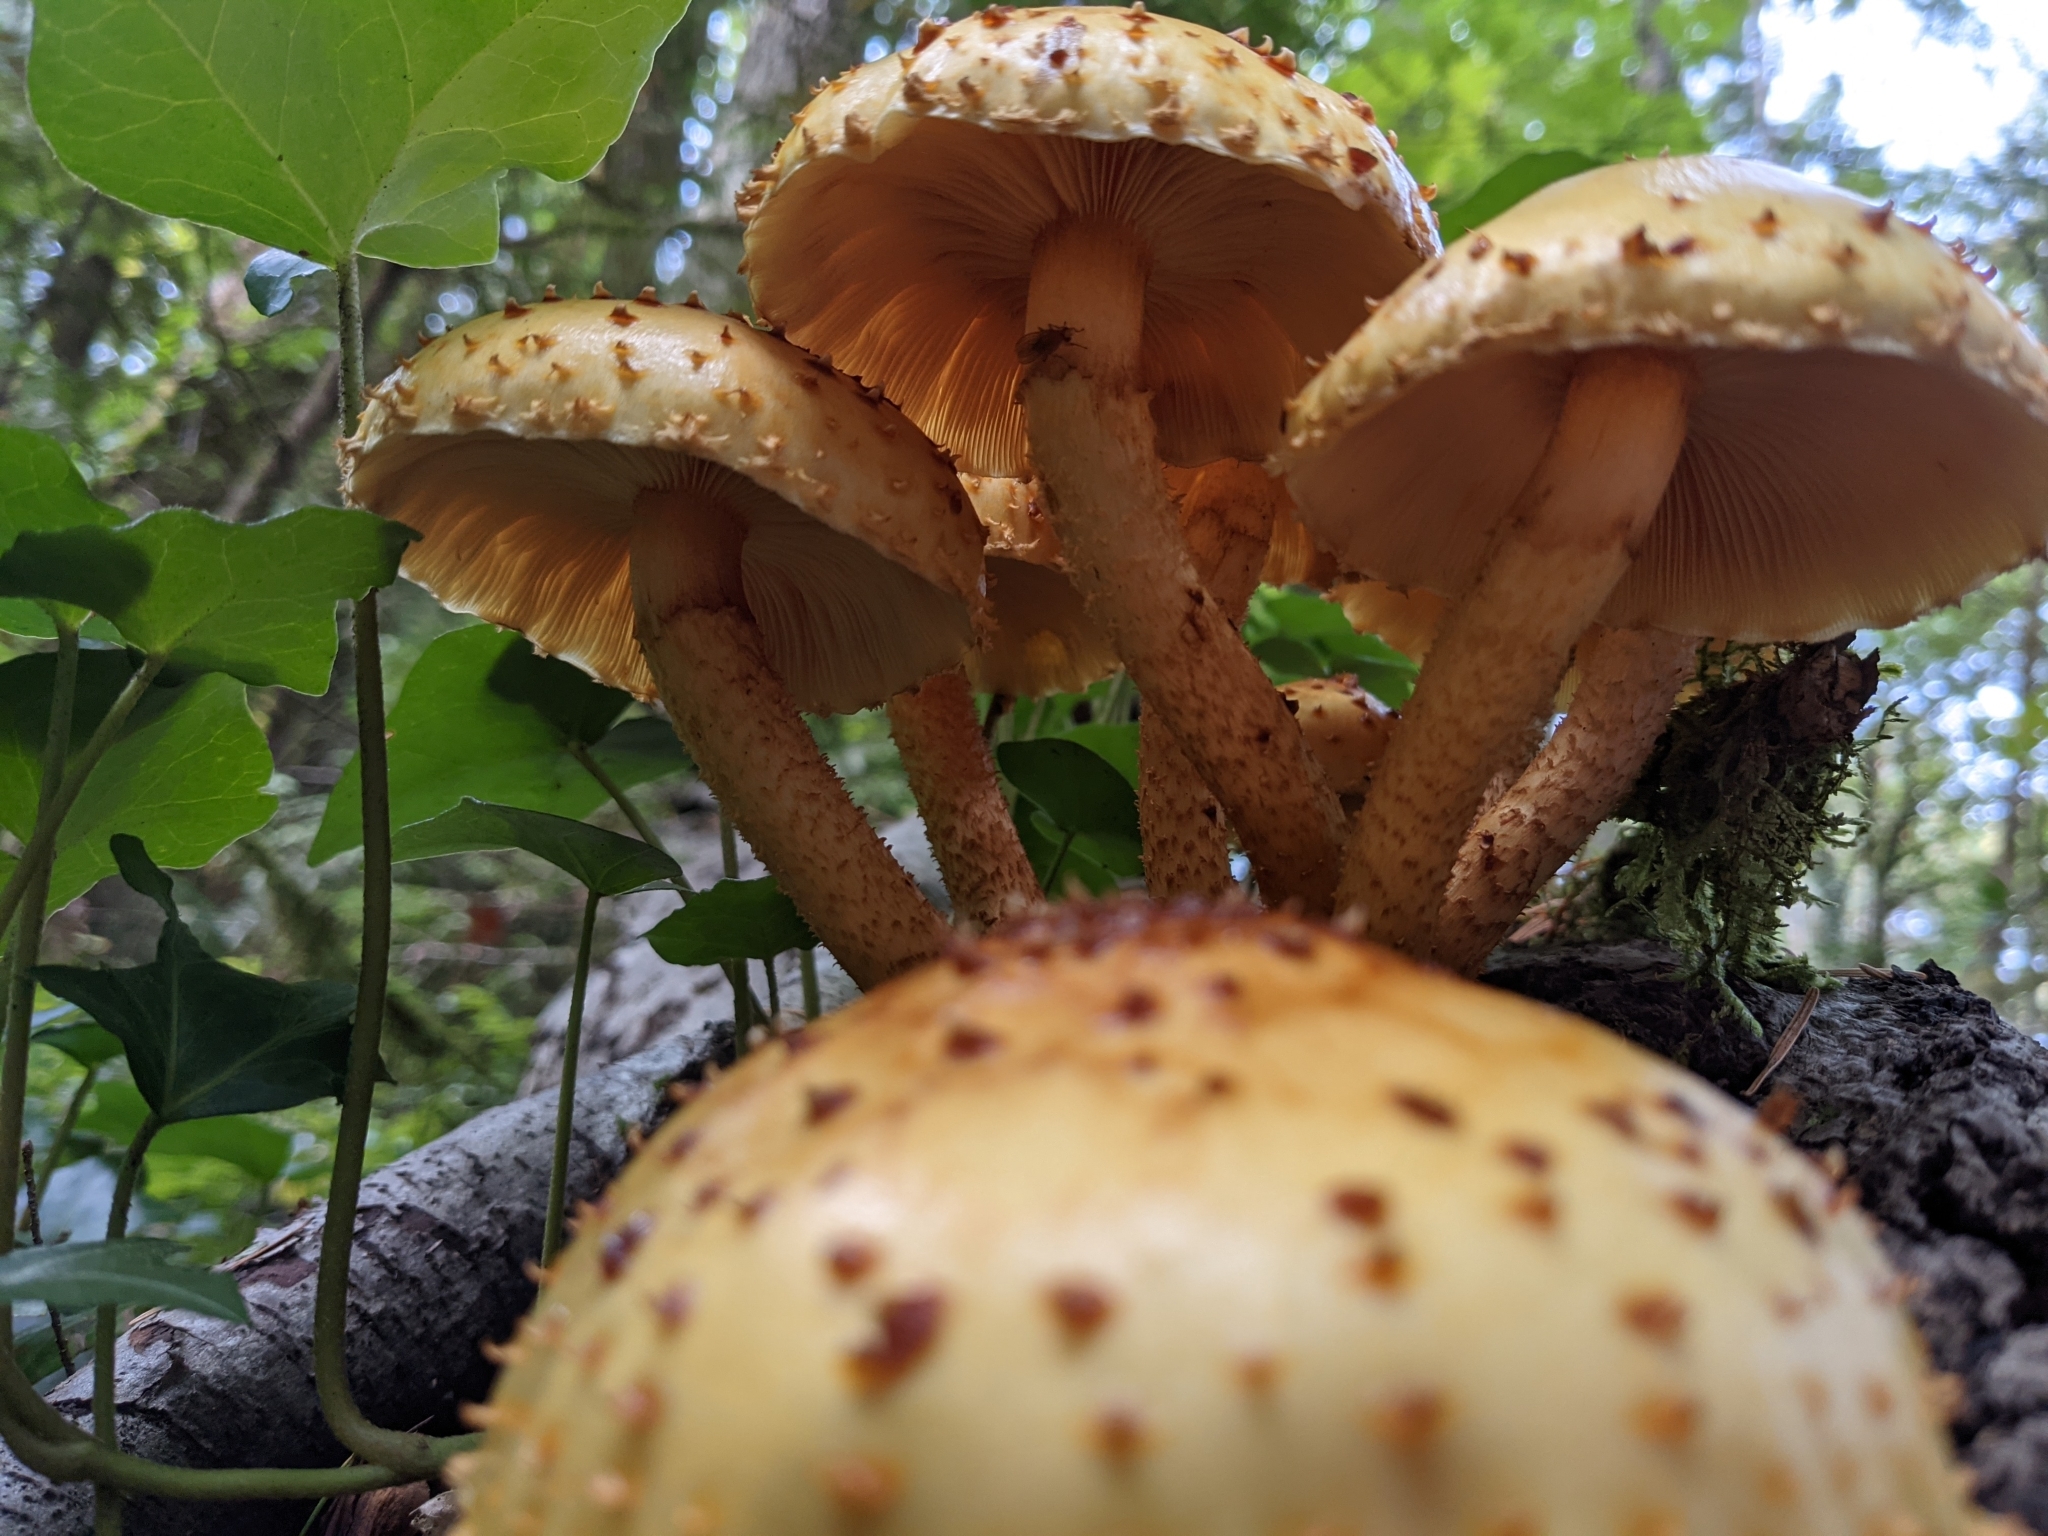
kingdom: Fungi
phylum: Basidiomycota
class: Agaricomycetes
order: Agaricales
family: Strophariaceae
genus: Pholiota
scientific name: Pholiota aurivella
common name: Golden scalycap
